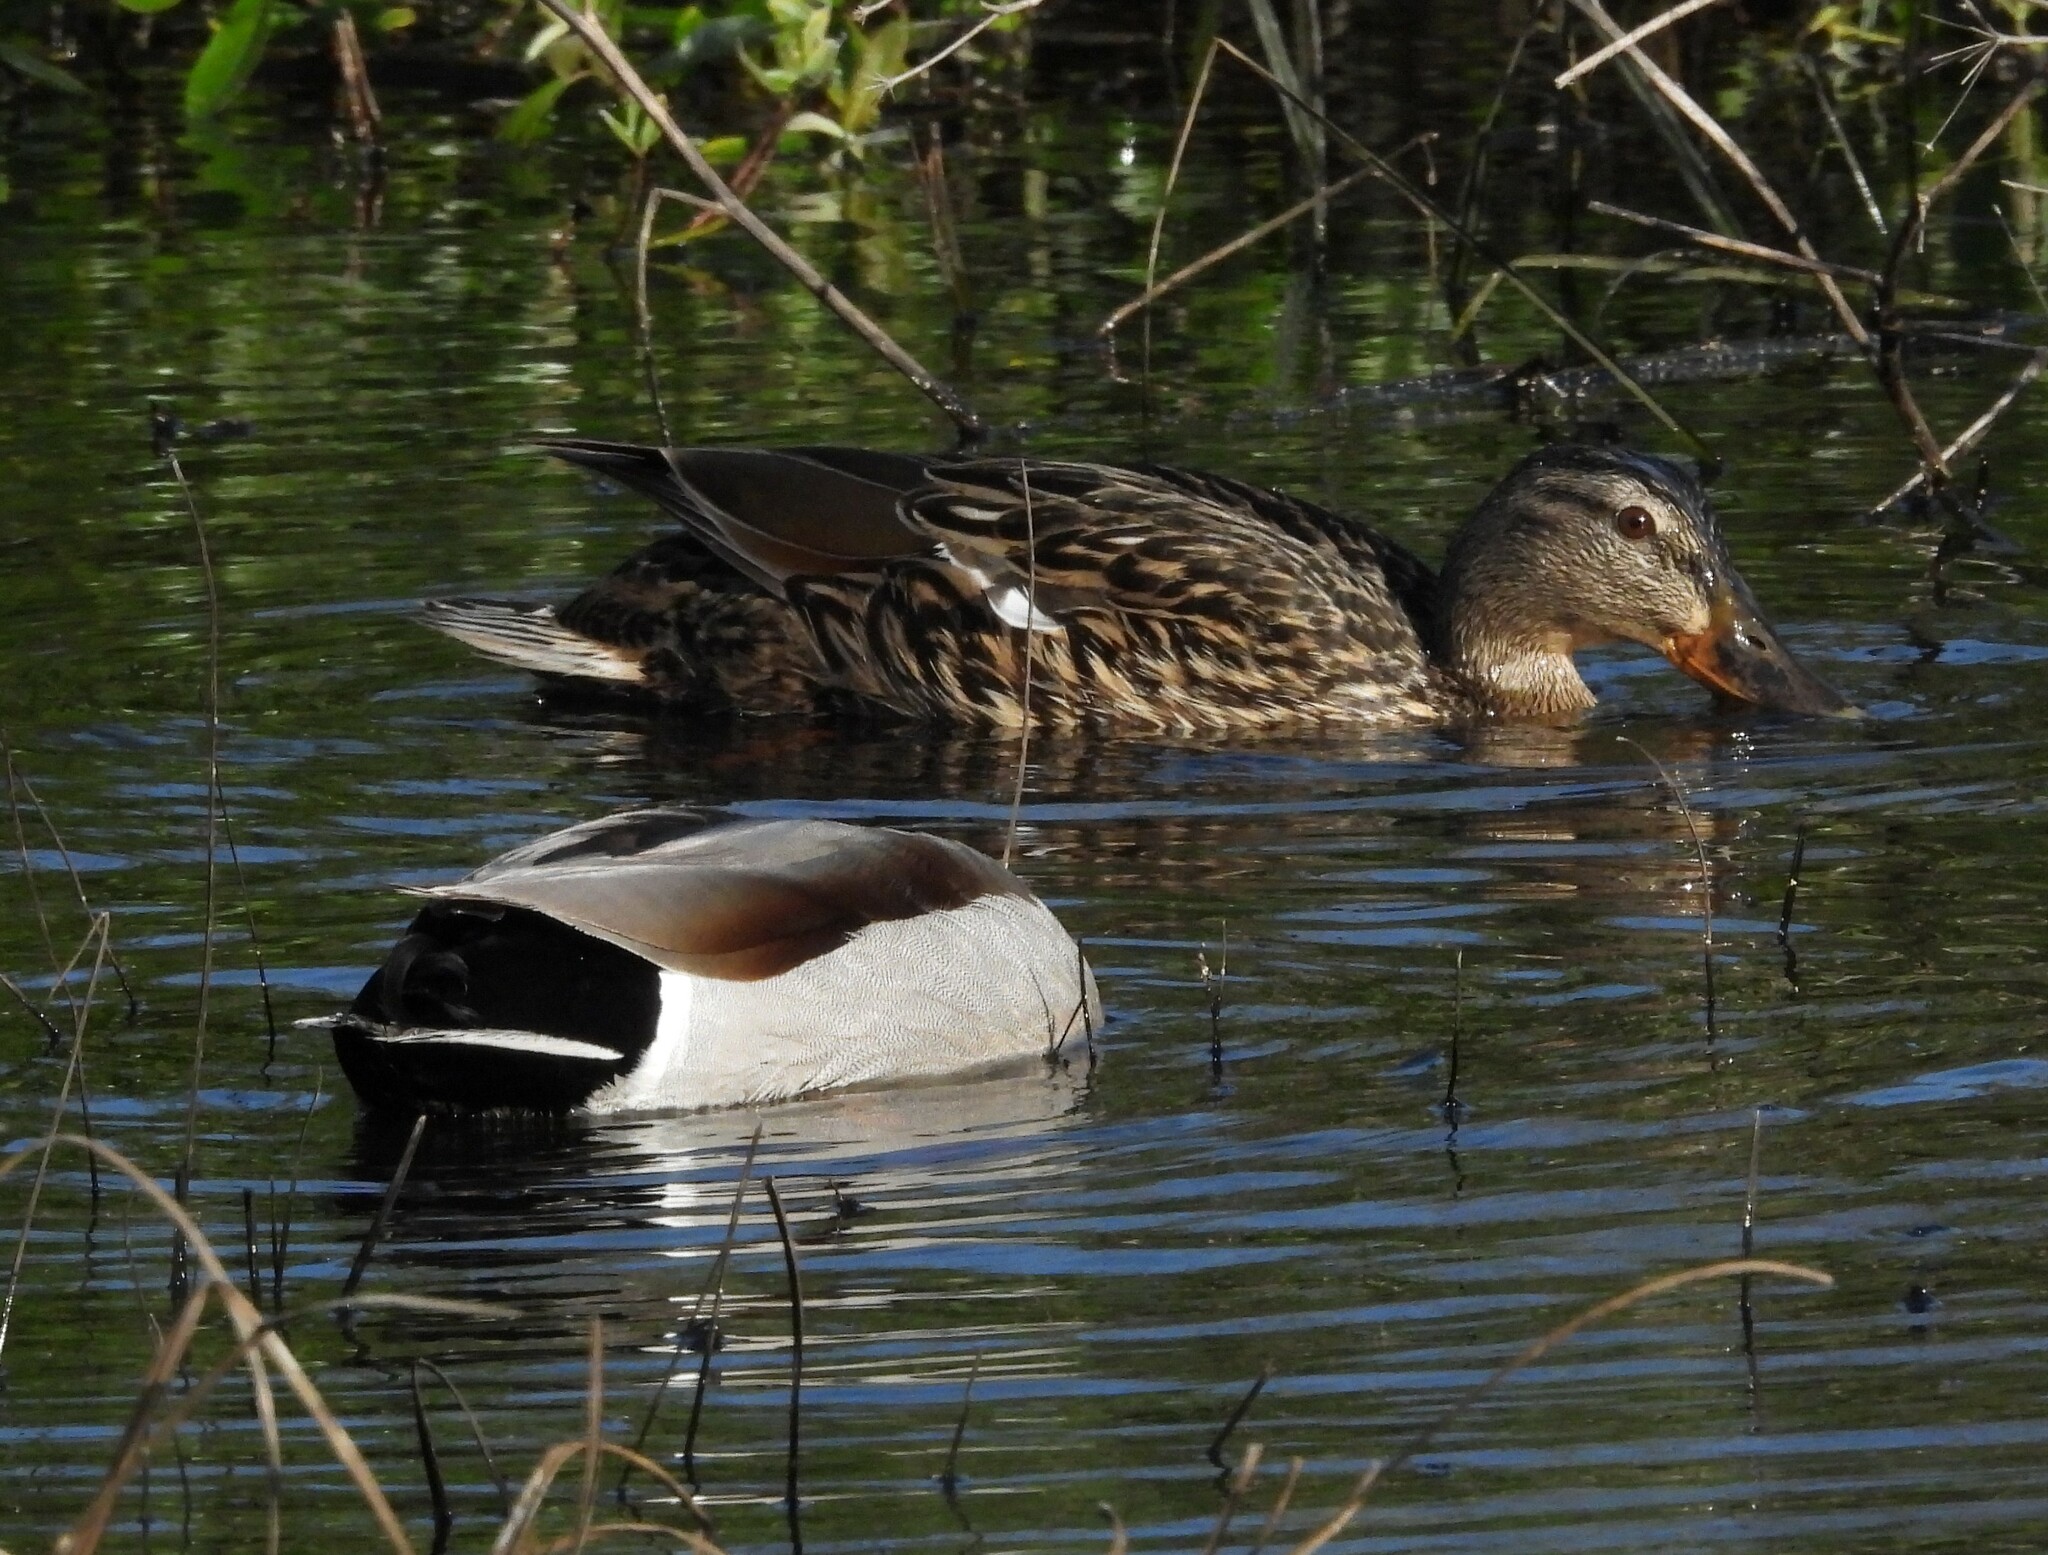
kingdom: Animalia
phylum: Chordata
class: Aves
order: Anseriformes
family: Anatidae
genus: Anas
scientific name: Anas platyrhynchos
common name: Mallard
